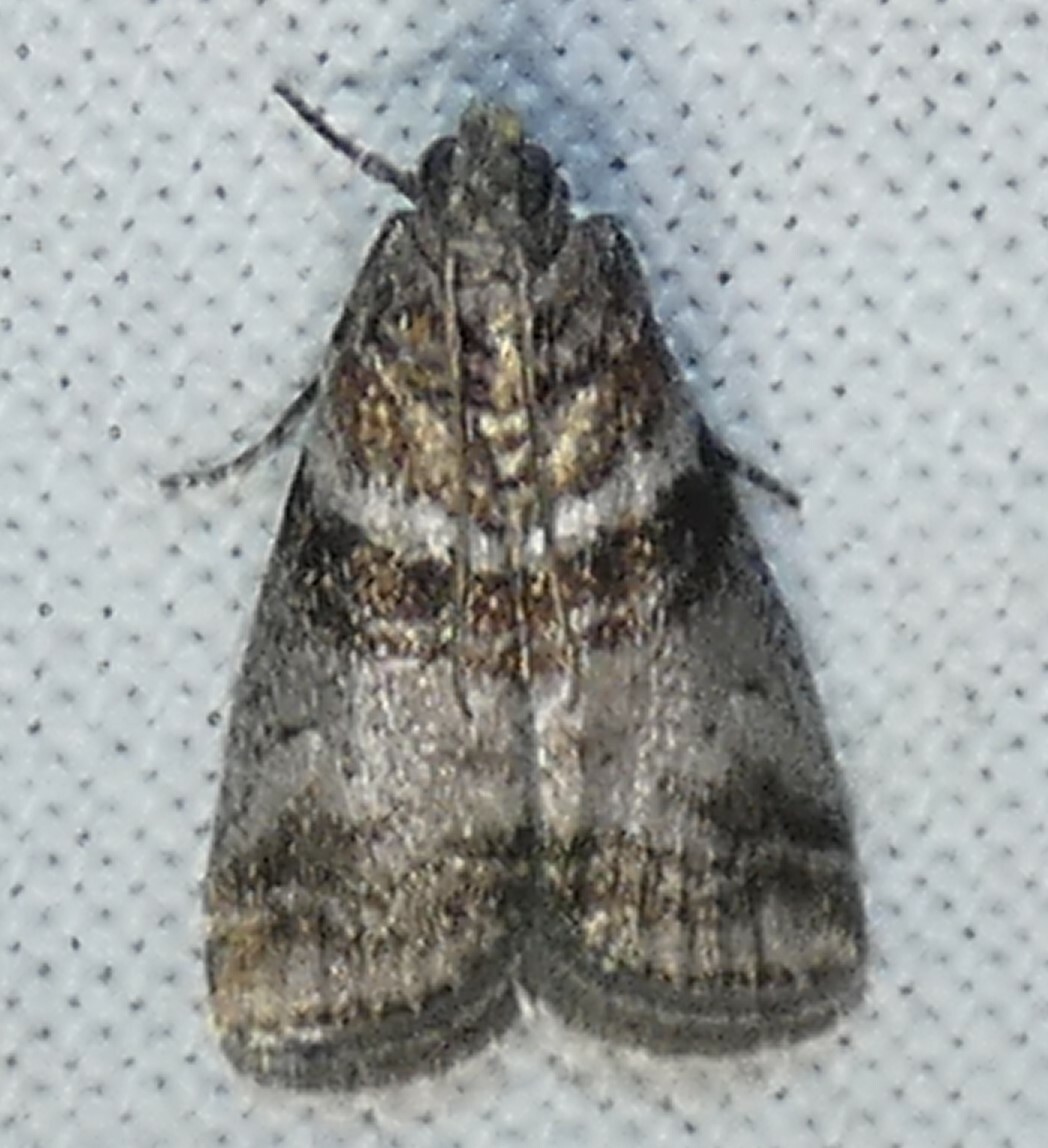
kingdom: Animalia
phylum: Arthropoda
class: Insecta
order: Lepidoptera
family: Pyralidae
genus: Sciota
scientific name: Sciota uvinella
